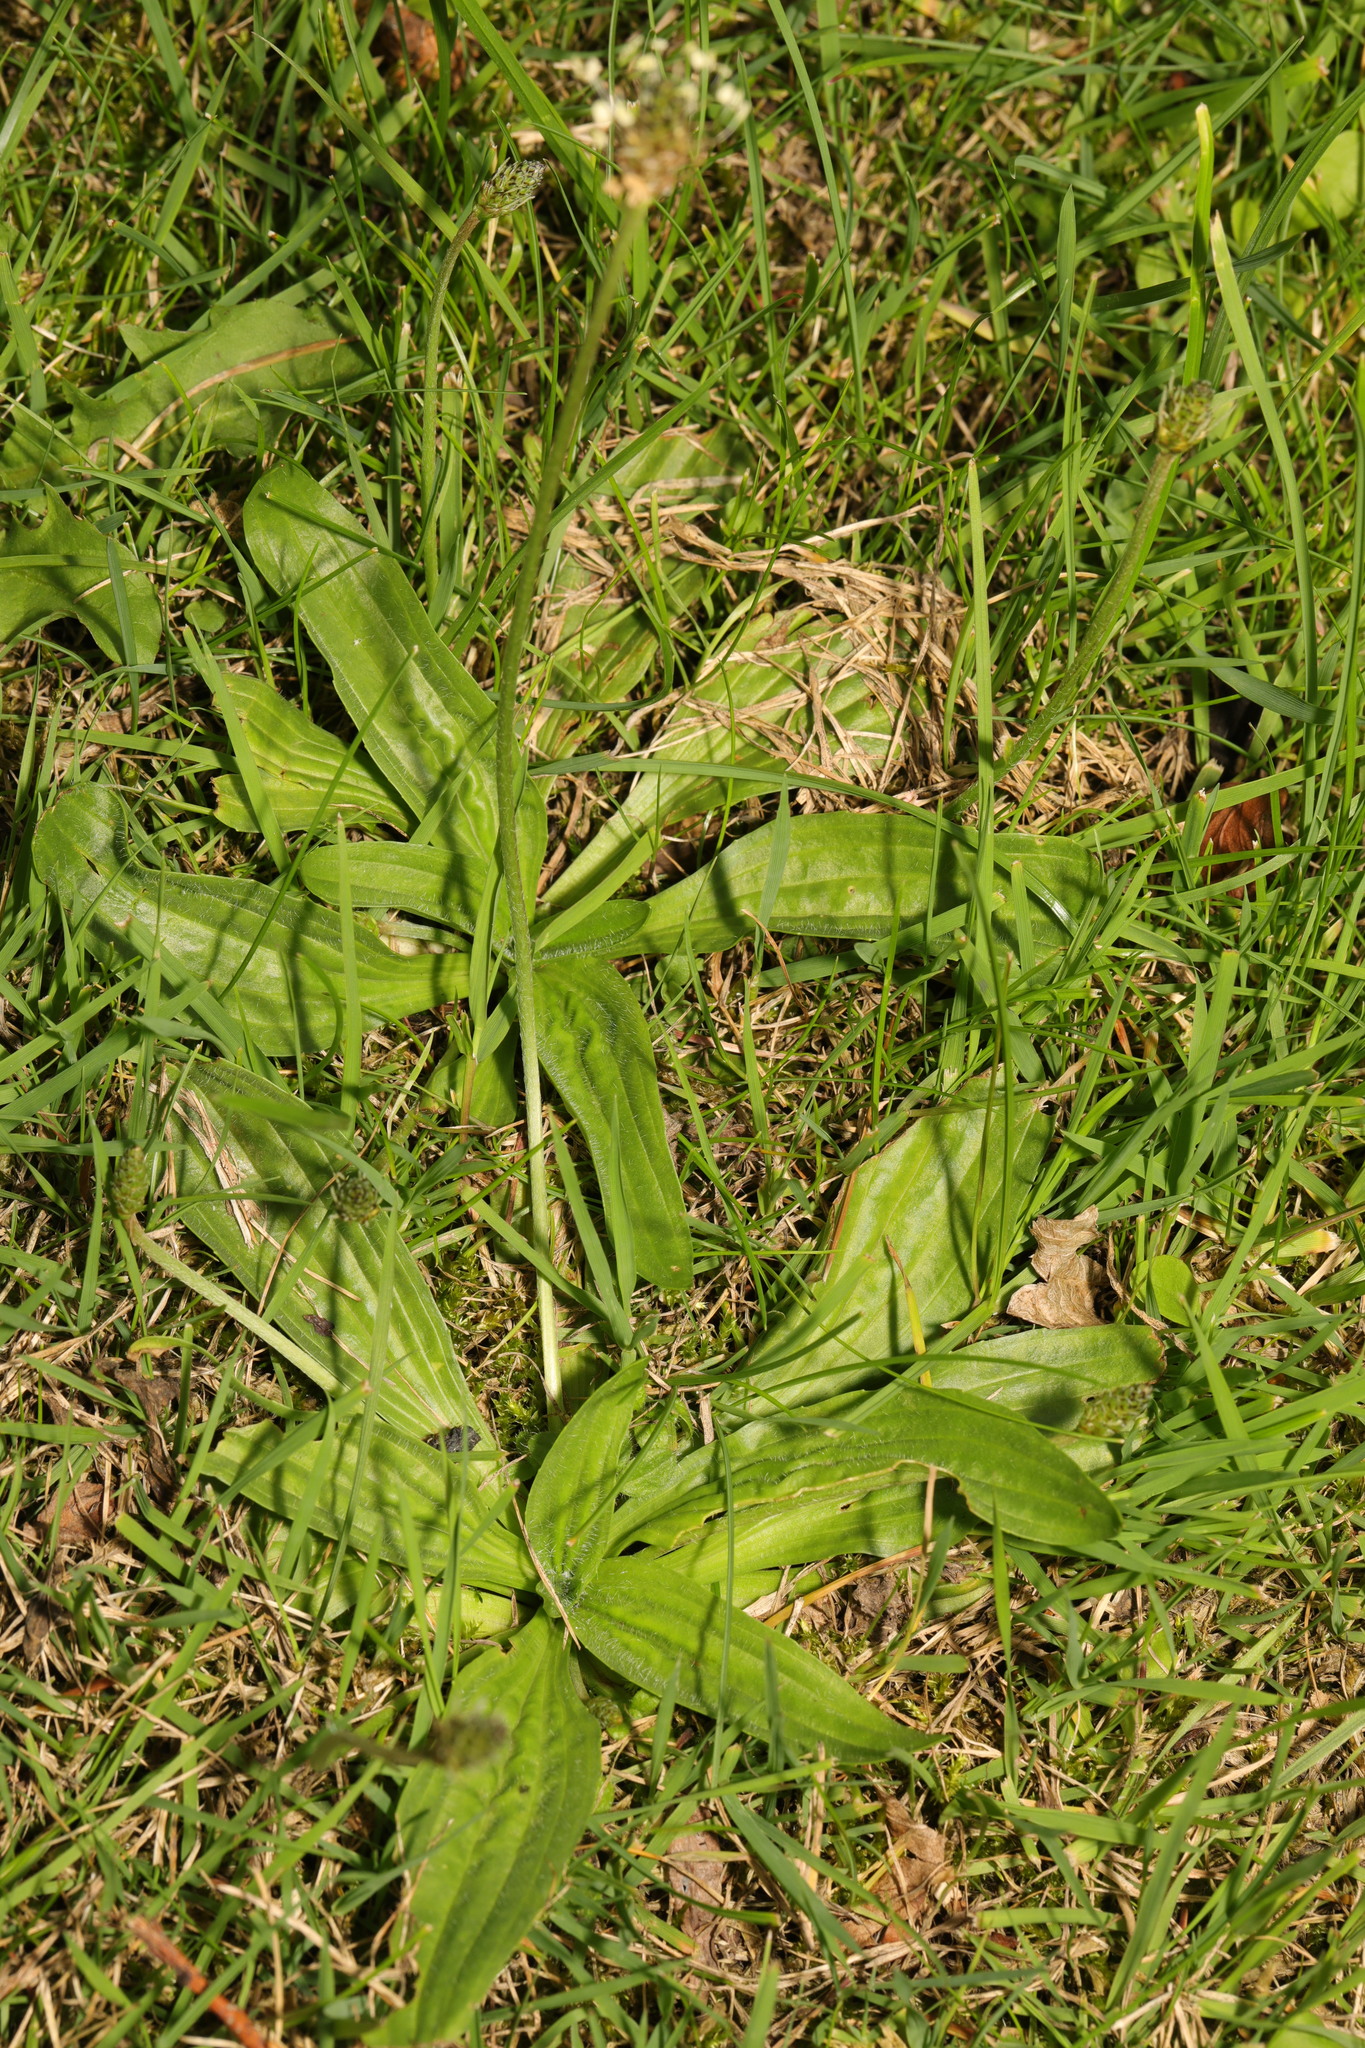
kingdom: Plantae
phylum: Tracheophyta
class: Magnoliopsida
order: Lamiales
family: Plantaginaceae
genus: Plantago
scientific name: Plantago lanceolata
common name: Ribwort plantain
